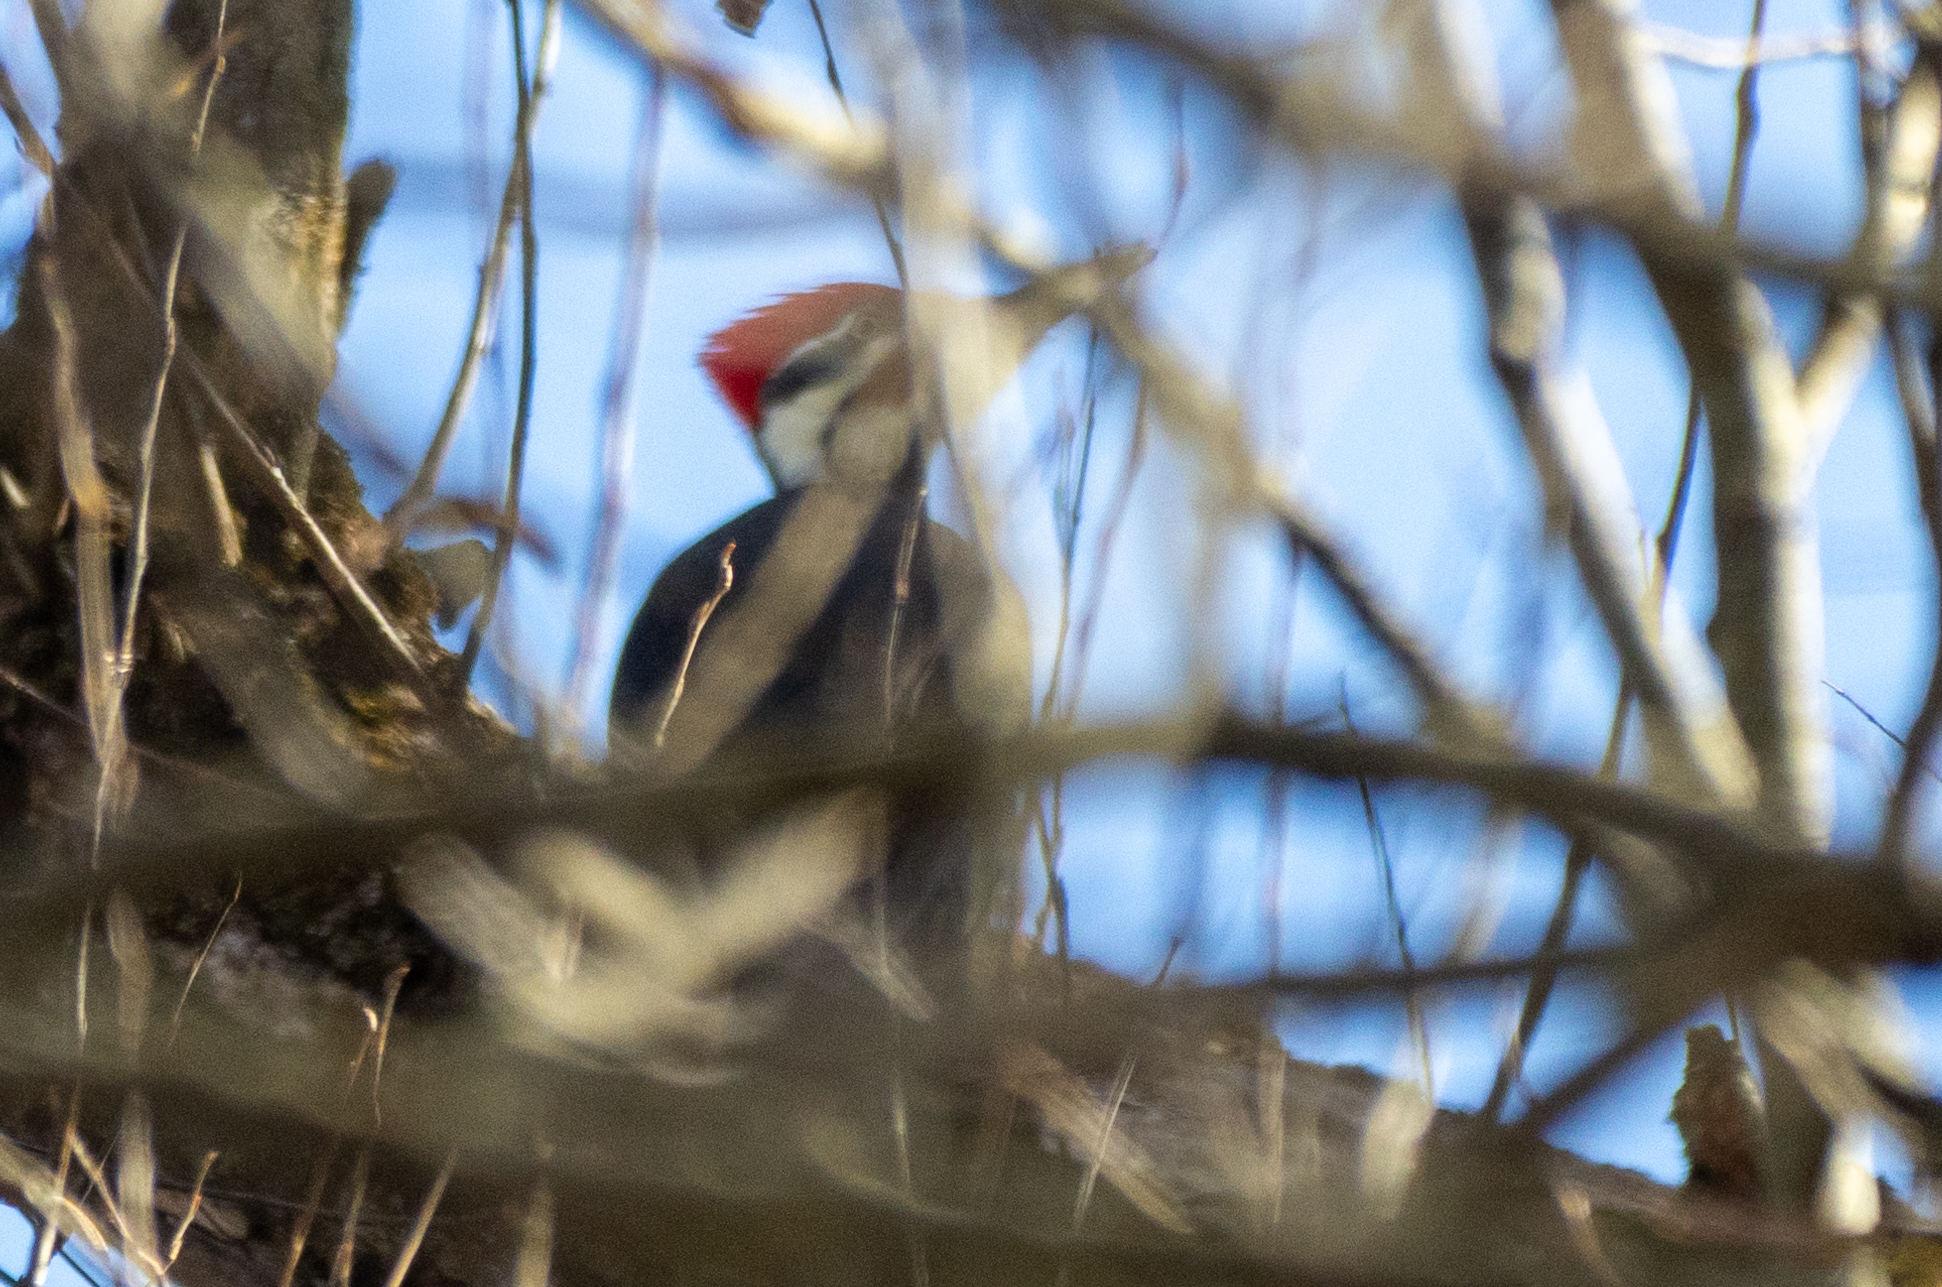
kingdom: Animalia
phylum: Chordata
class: Aves
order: Piciformes
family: Picidae
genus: Dryocopus
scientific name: Dryocopus pileatus
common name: Pileated woodpecker
